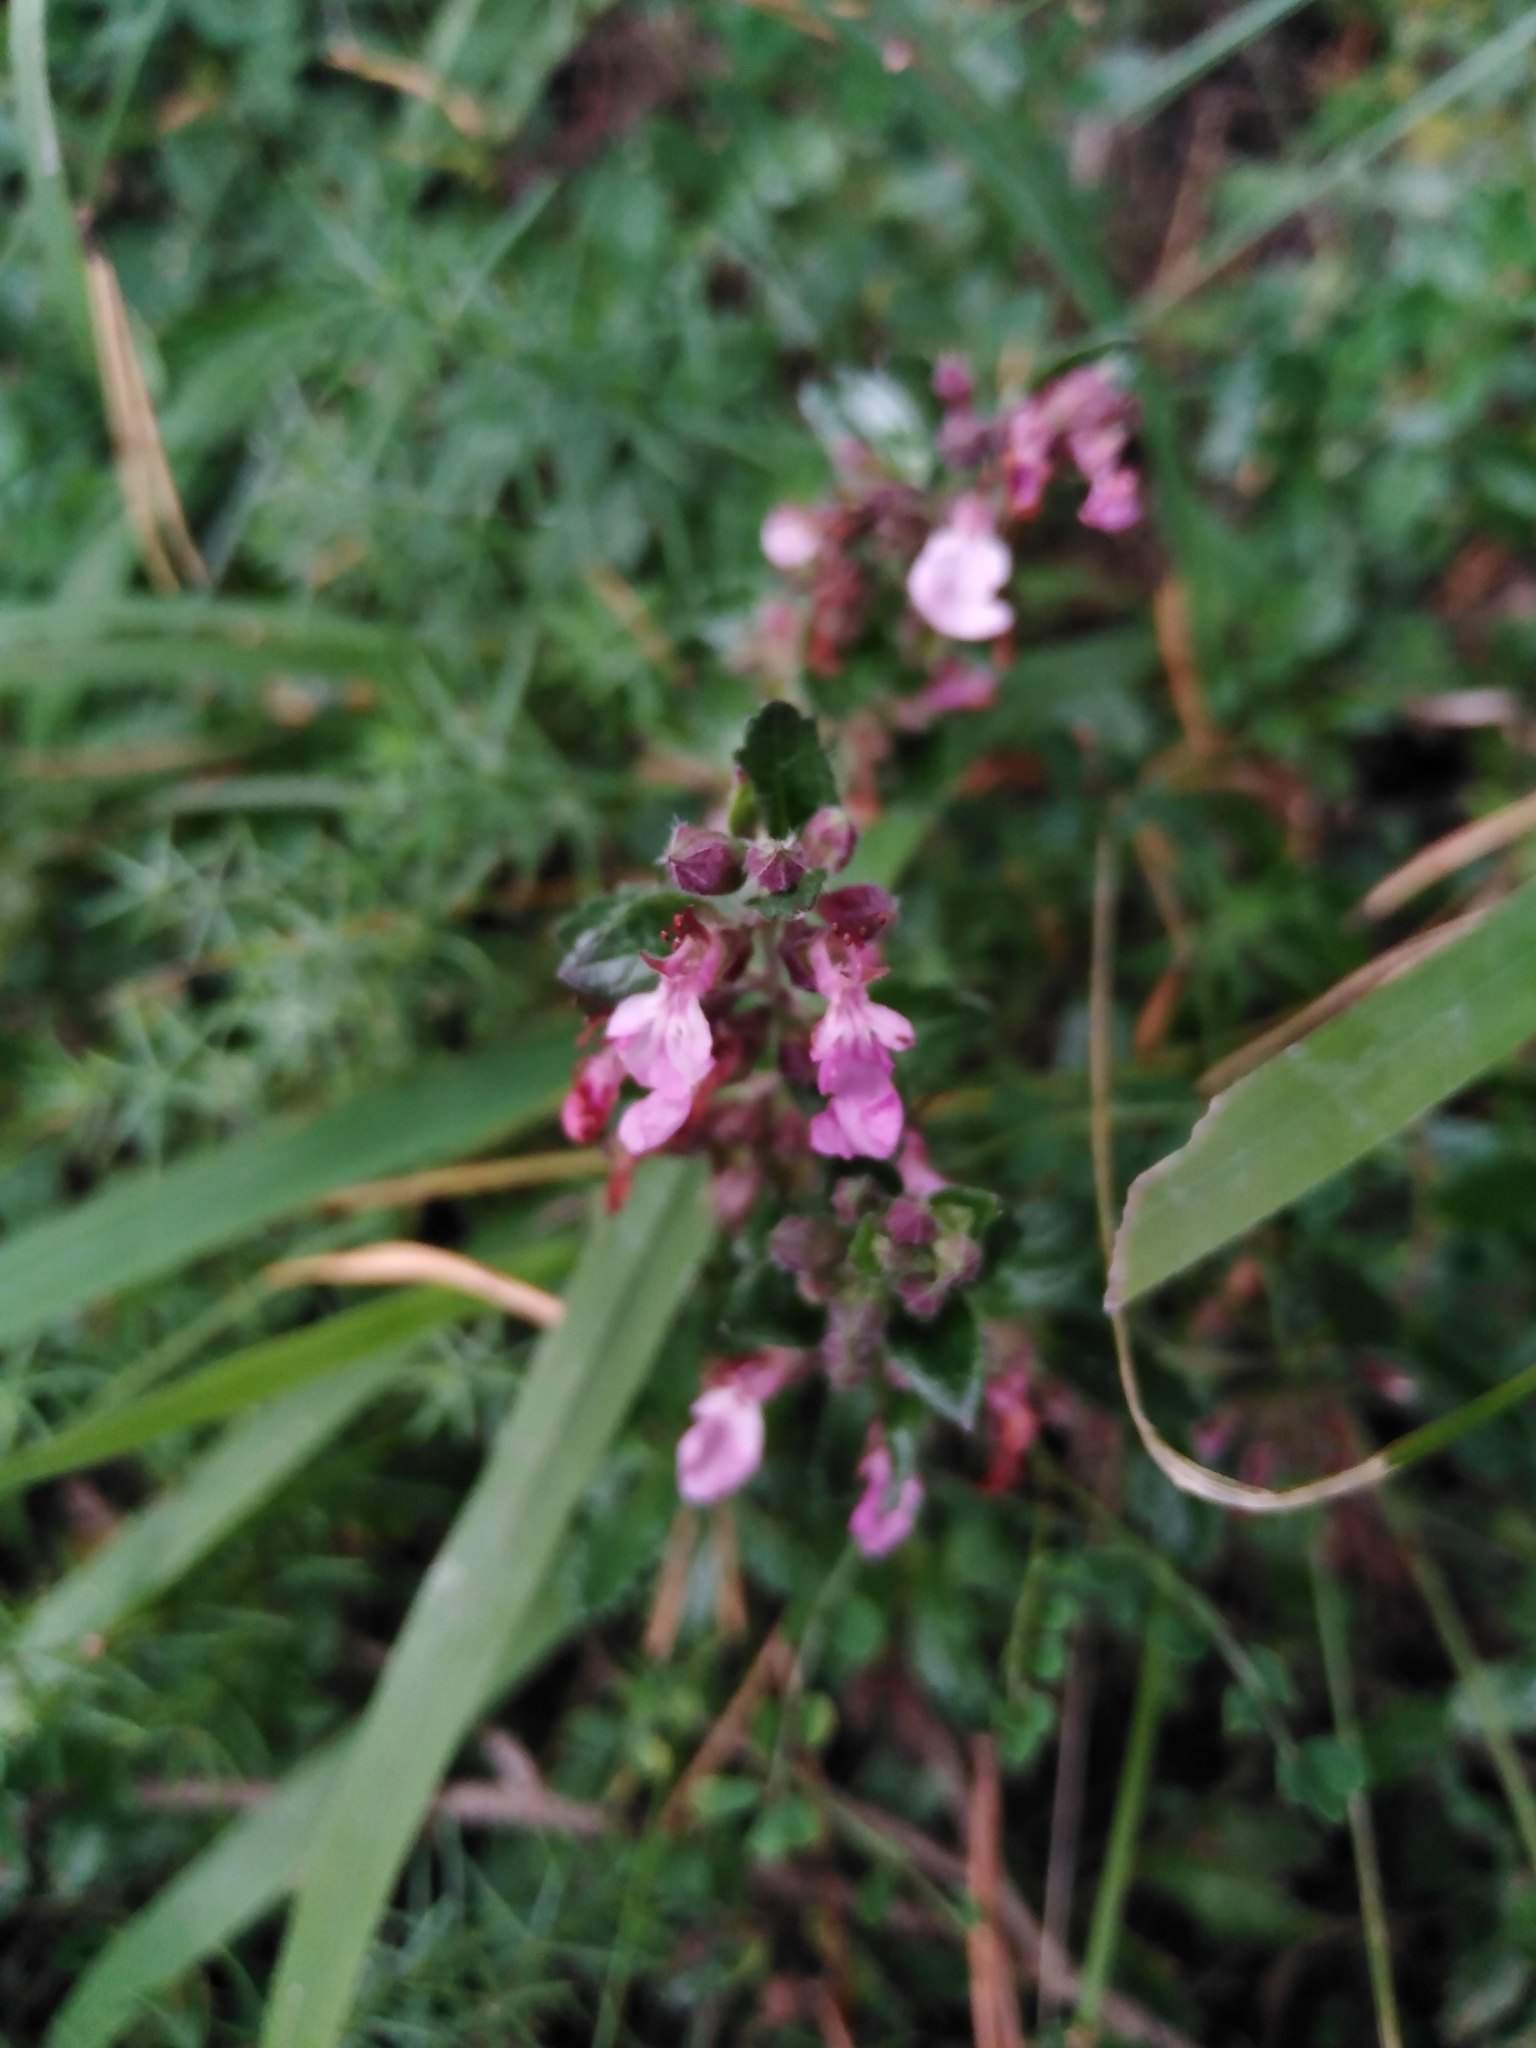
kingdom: Plantae
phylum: Tracheophyta
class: Magnoliopsida
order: Lamiales
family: Lamiaceae
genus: Teucrium
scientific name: Teucrium chamaedrys
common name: Wall germander
